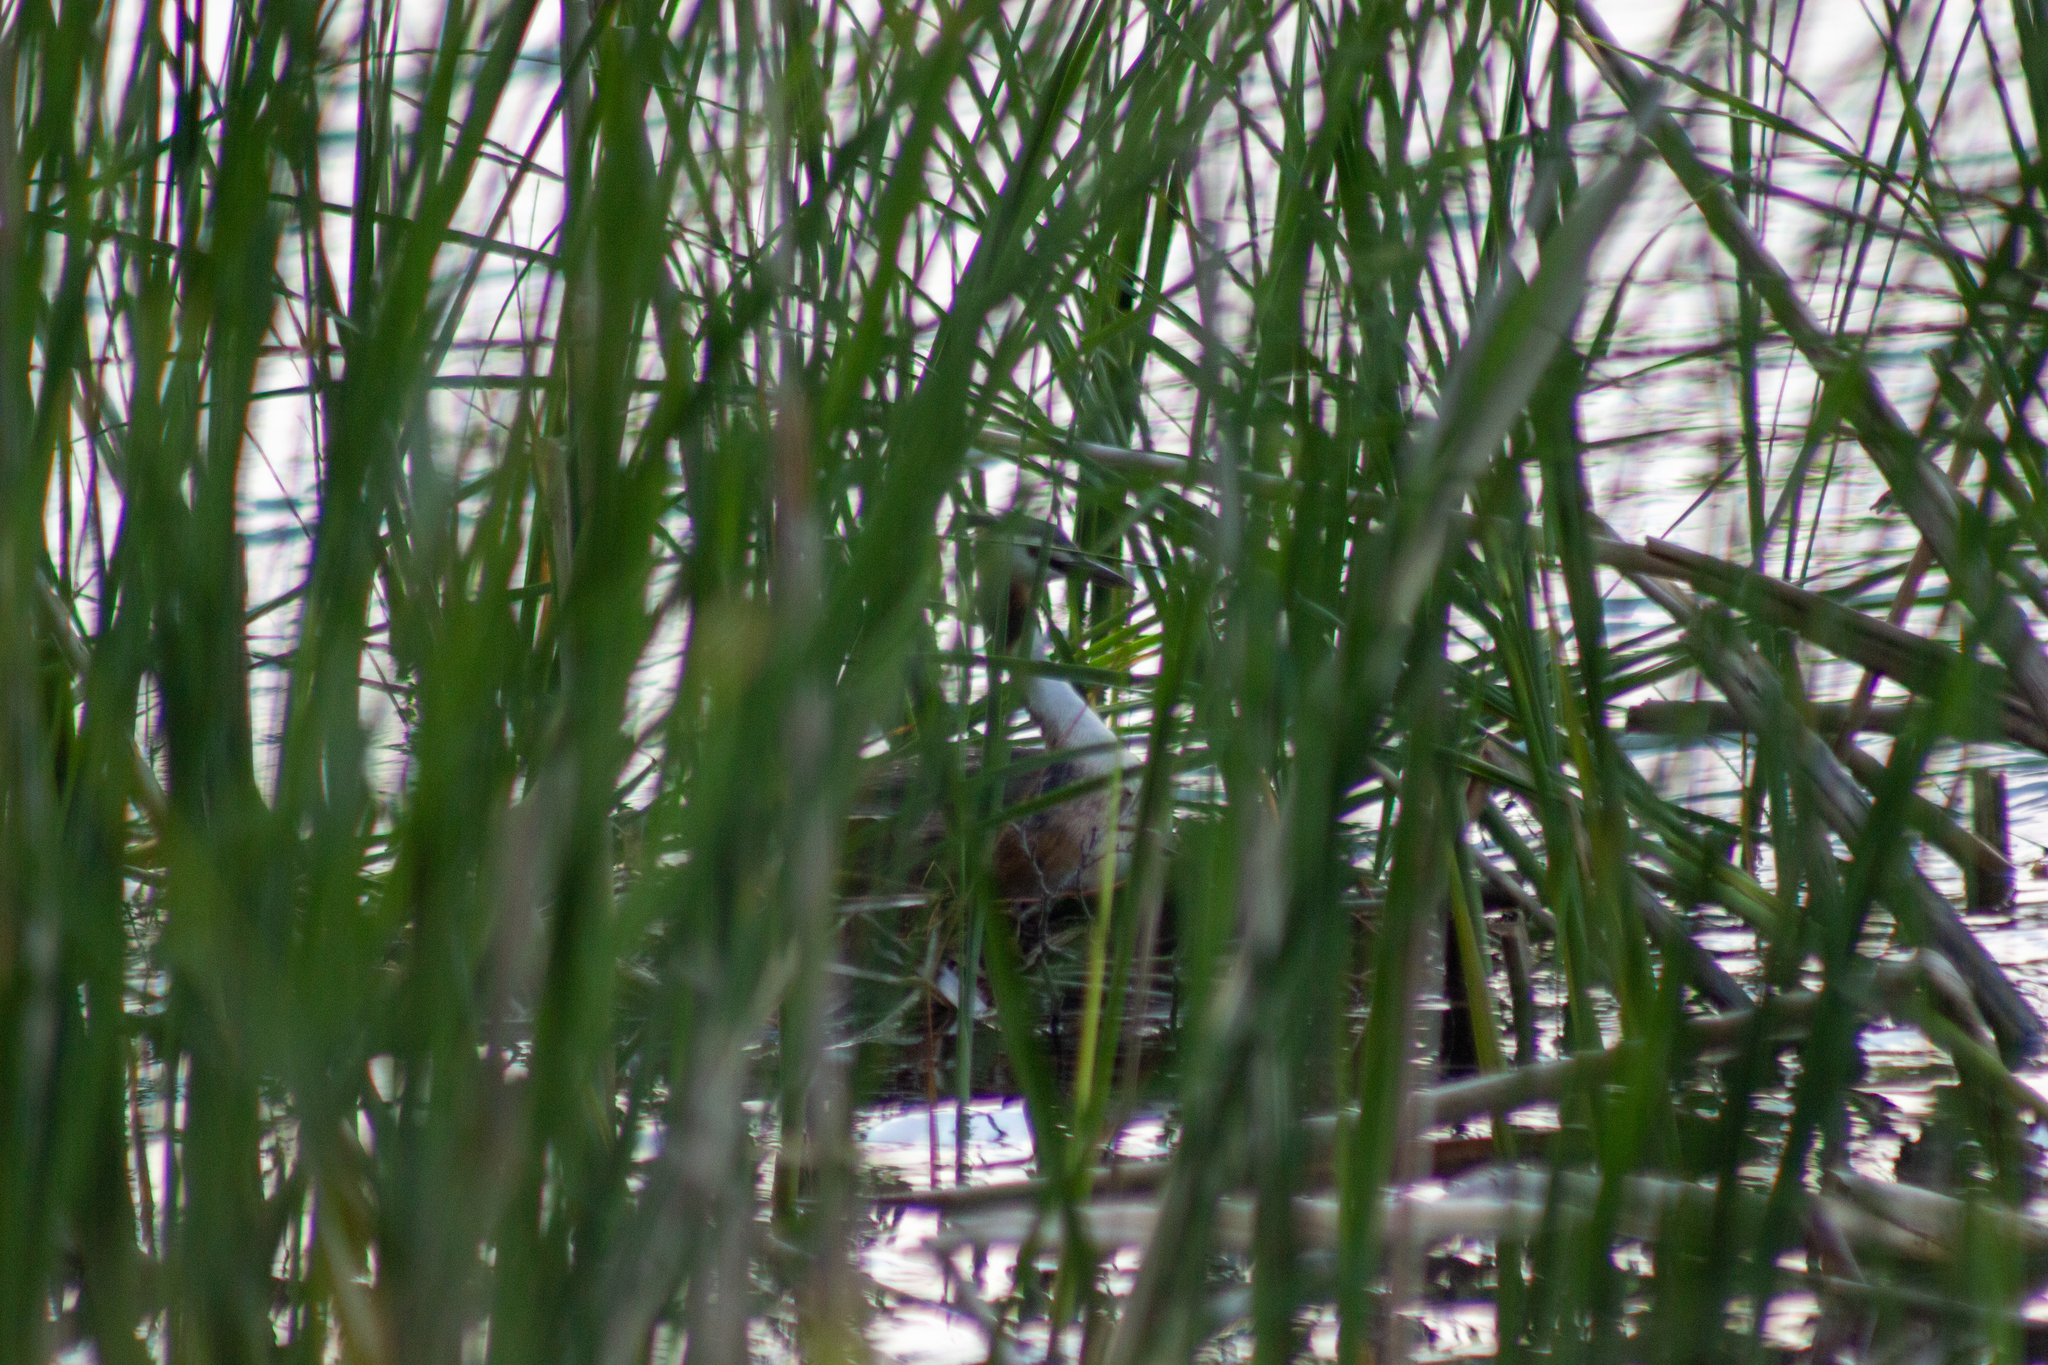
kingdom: Animalia
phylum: Chordata
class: Aves
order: Podicipediformes
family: Podicipedidae
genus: Podiceps
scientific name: Podiceps cristatus
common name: Great crested grebe
